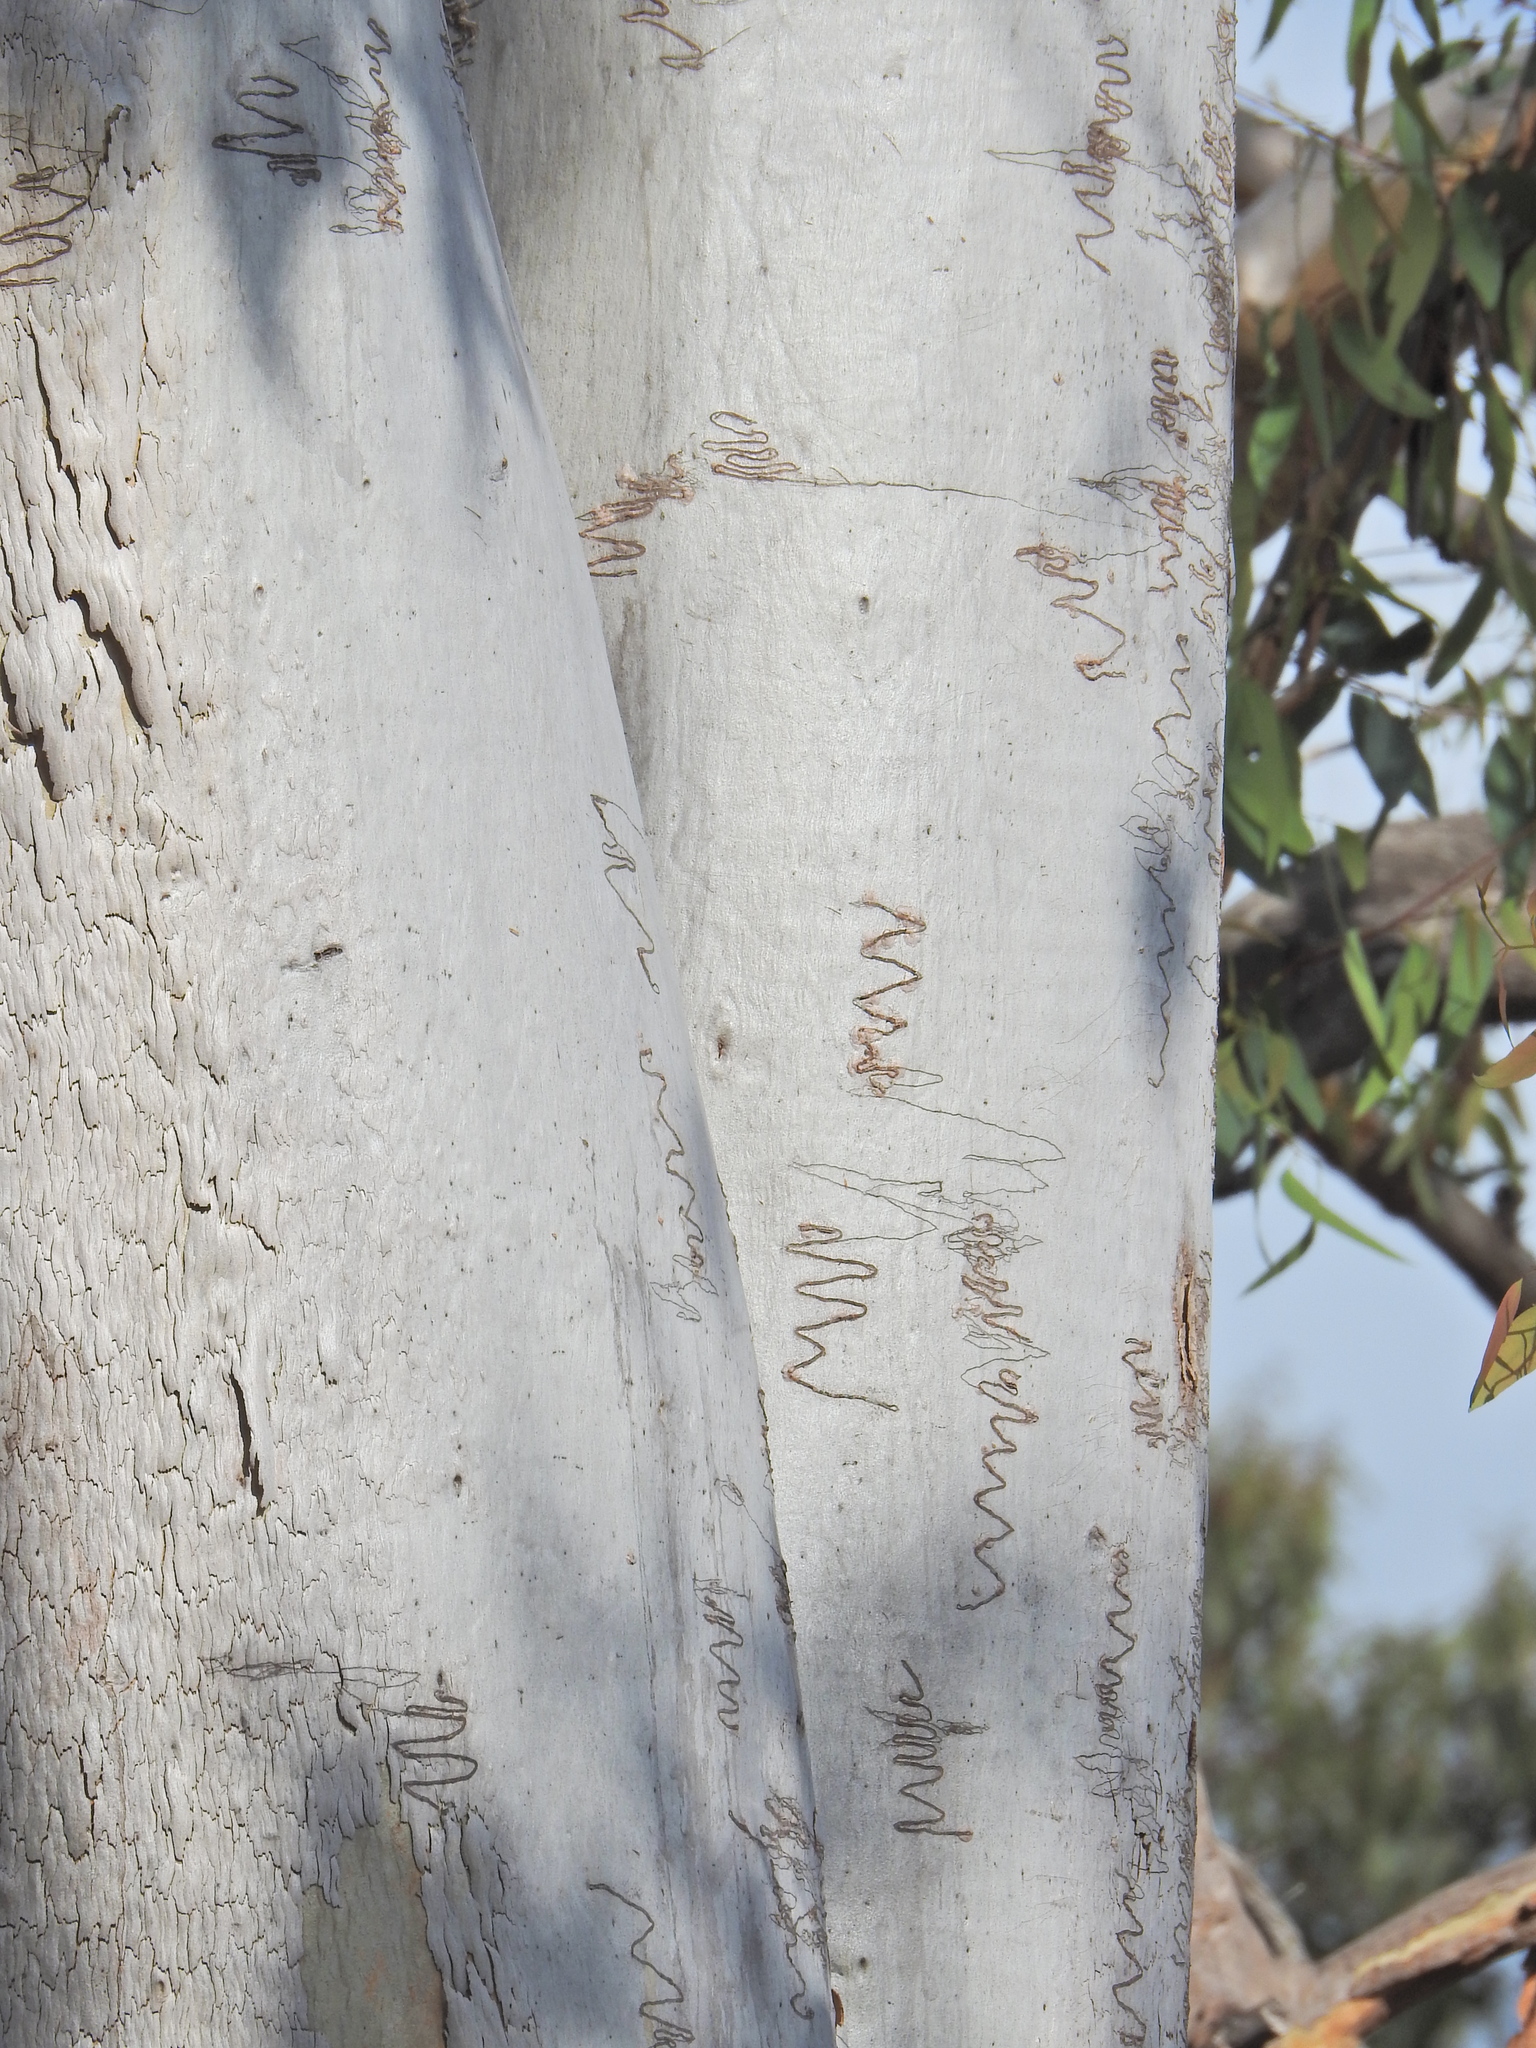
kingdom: Plantae
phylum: Tracheophyta
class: Magnoliopsida
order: Myrtales
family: Myrtaceae
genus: Eucalyptus
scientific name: Eucalyptus racemosa
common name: Scribbly gum
